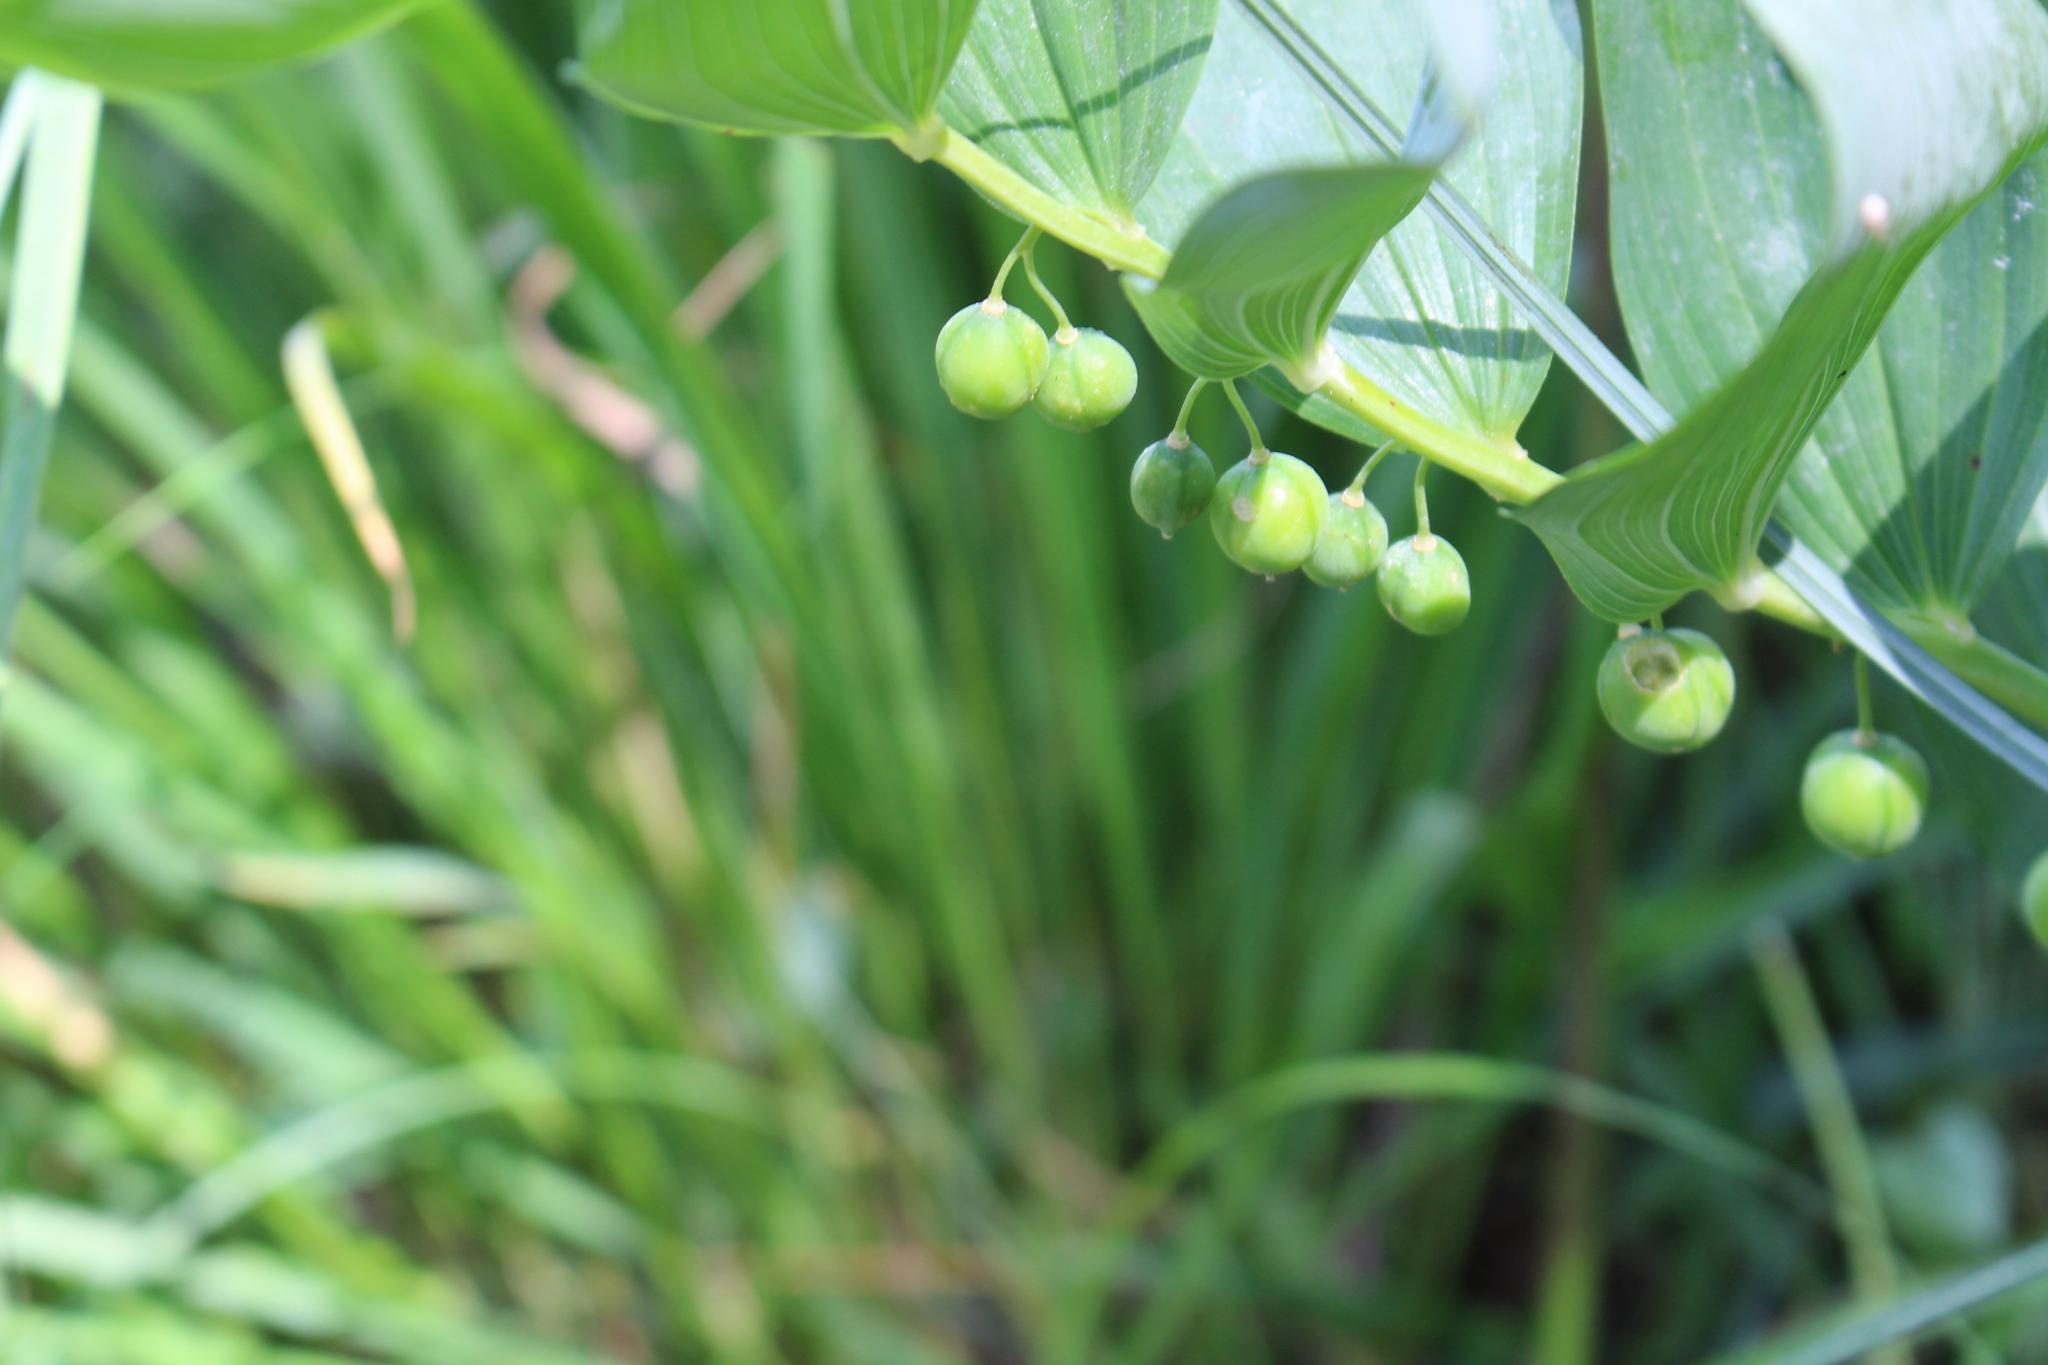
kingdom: Plantae
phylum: Tracheophyta
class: Liliopsida
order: Asparagales
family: Asparagaceae
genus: Polygonatum
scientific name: Polygonatum odoratum
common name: Angular solomon's-seal
